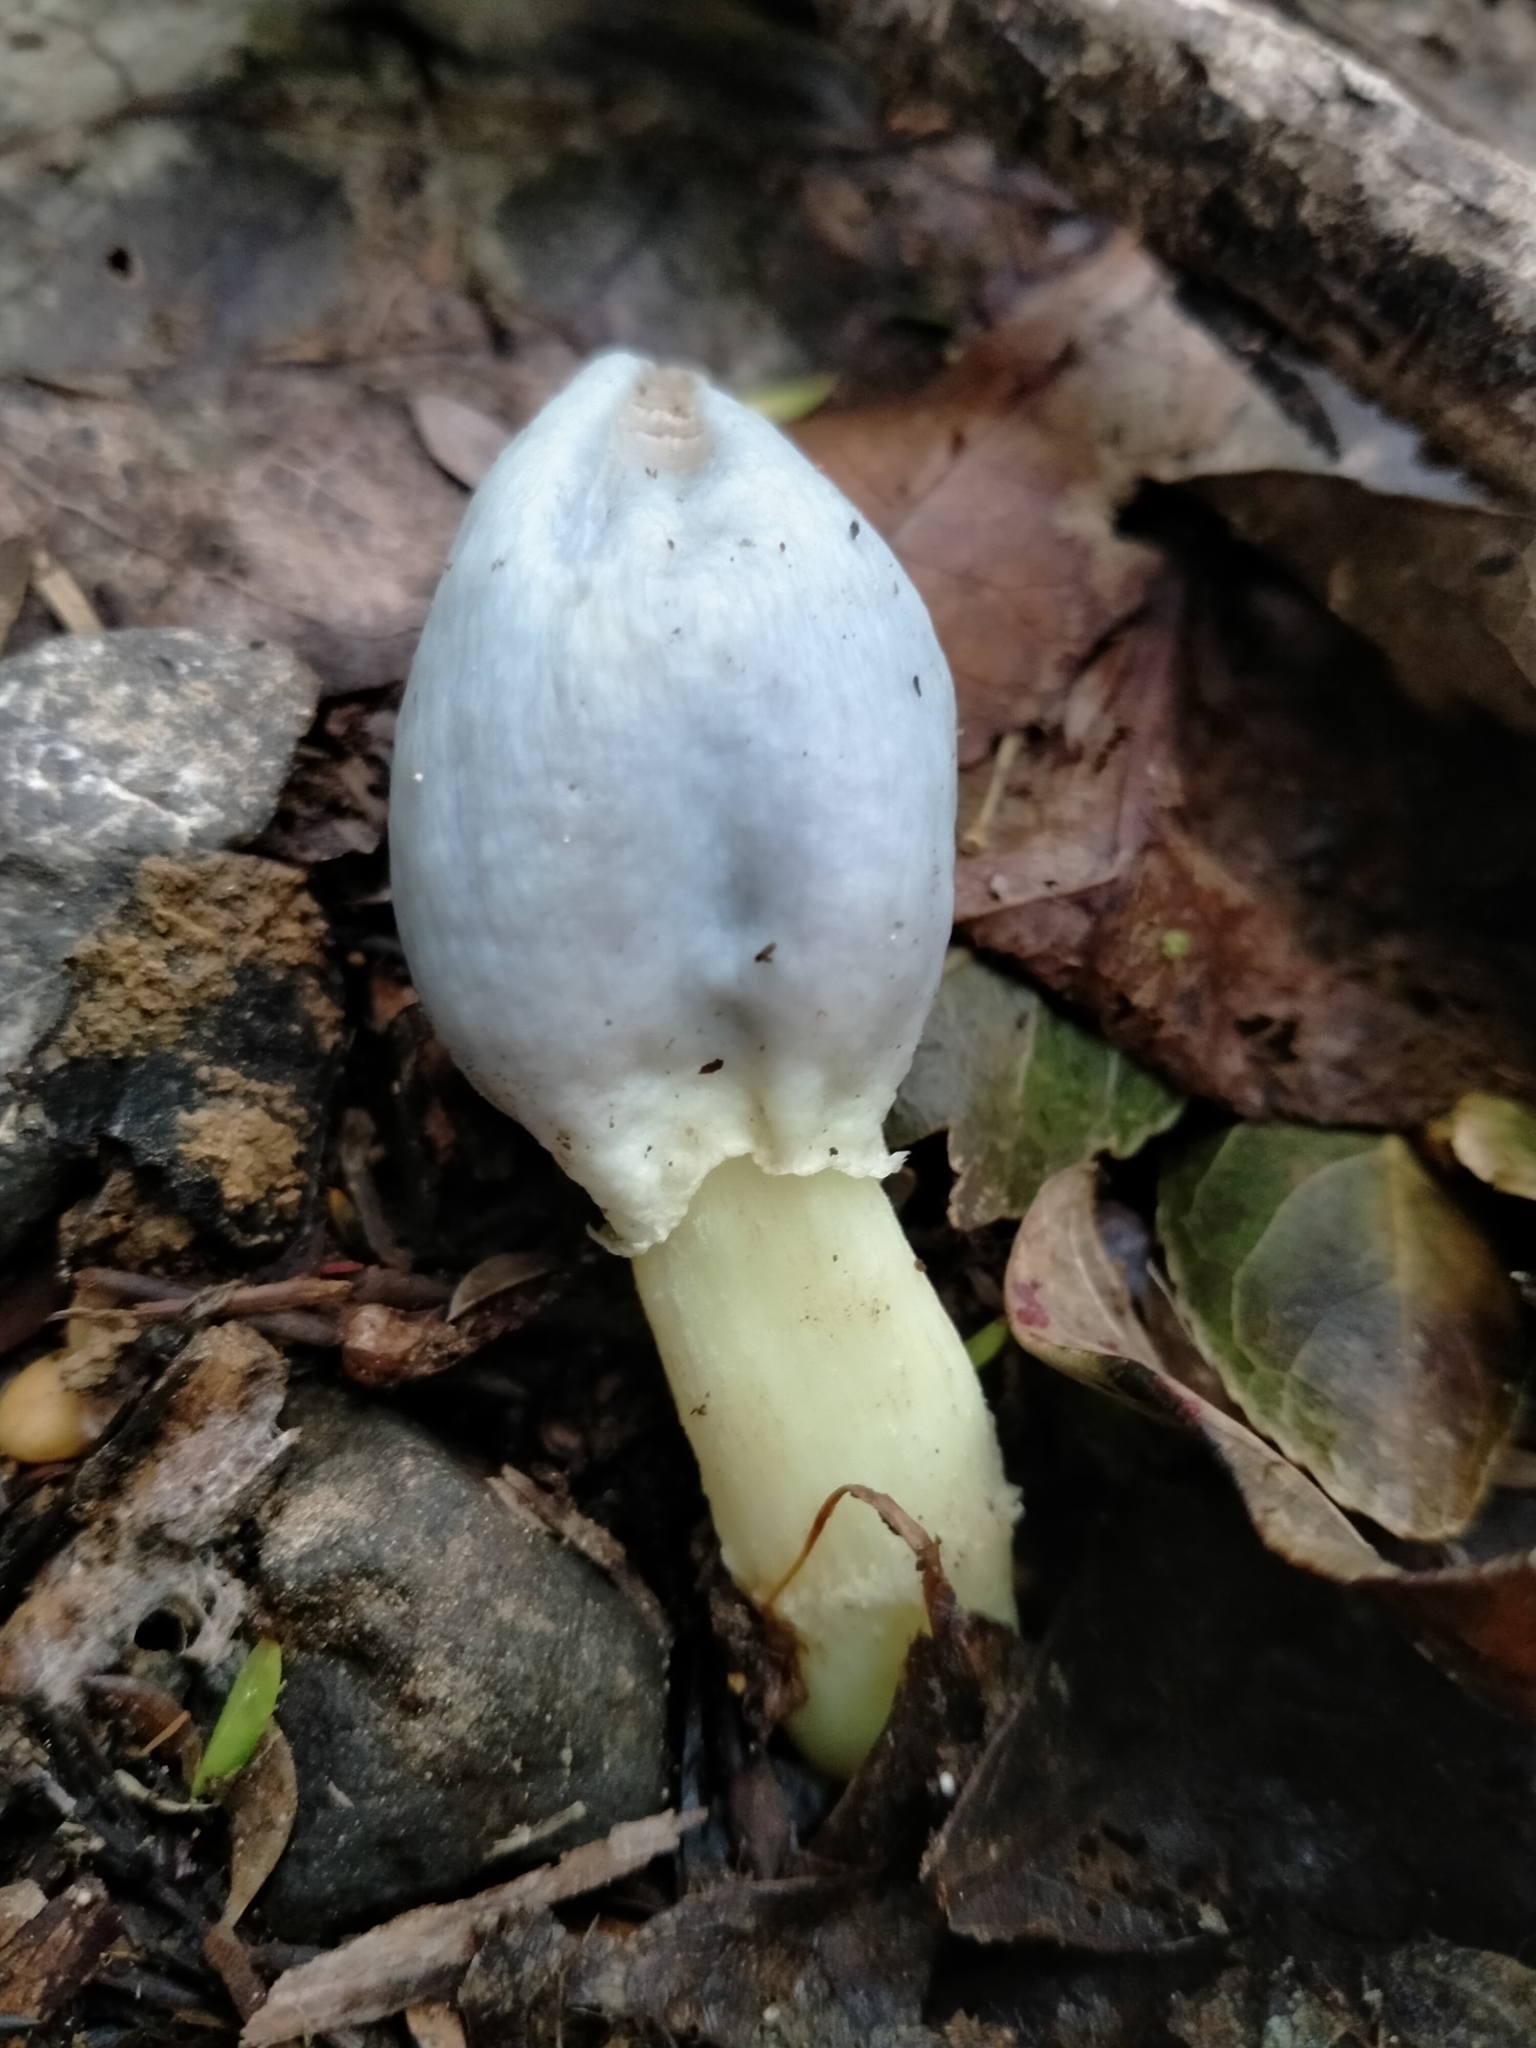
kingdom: Fungi
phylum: Basidiomycota
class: Agaricomycetes
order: Agaricales
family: Agaricaceae
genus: Clavogaster
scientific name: Clavogaster virescens
